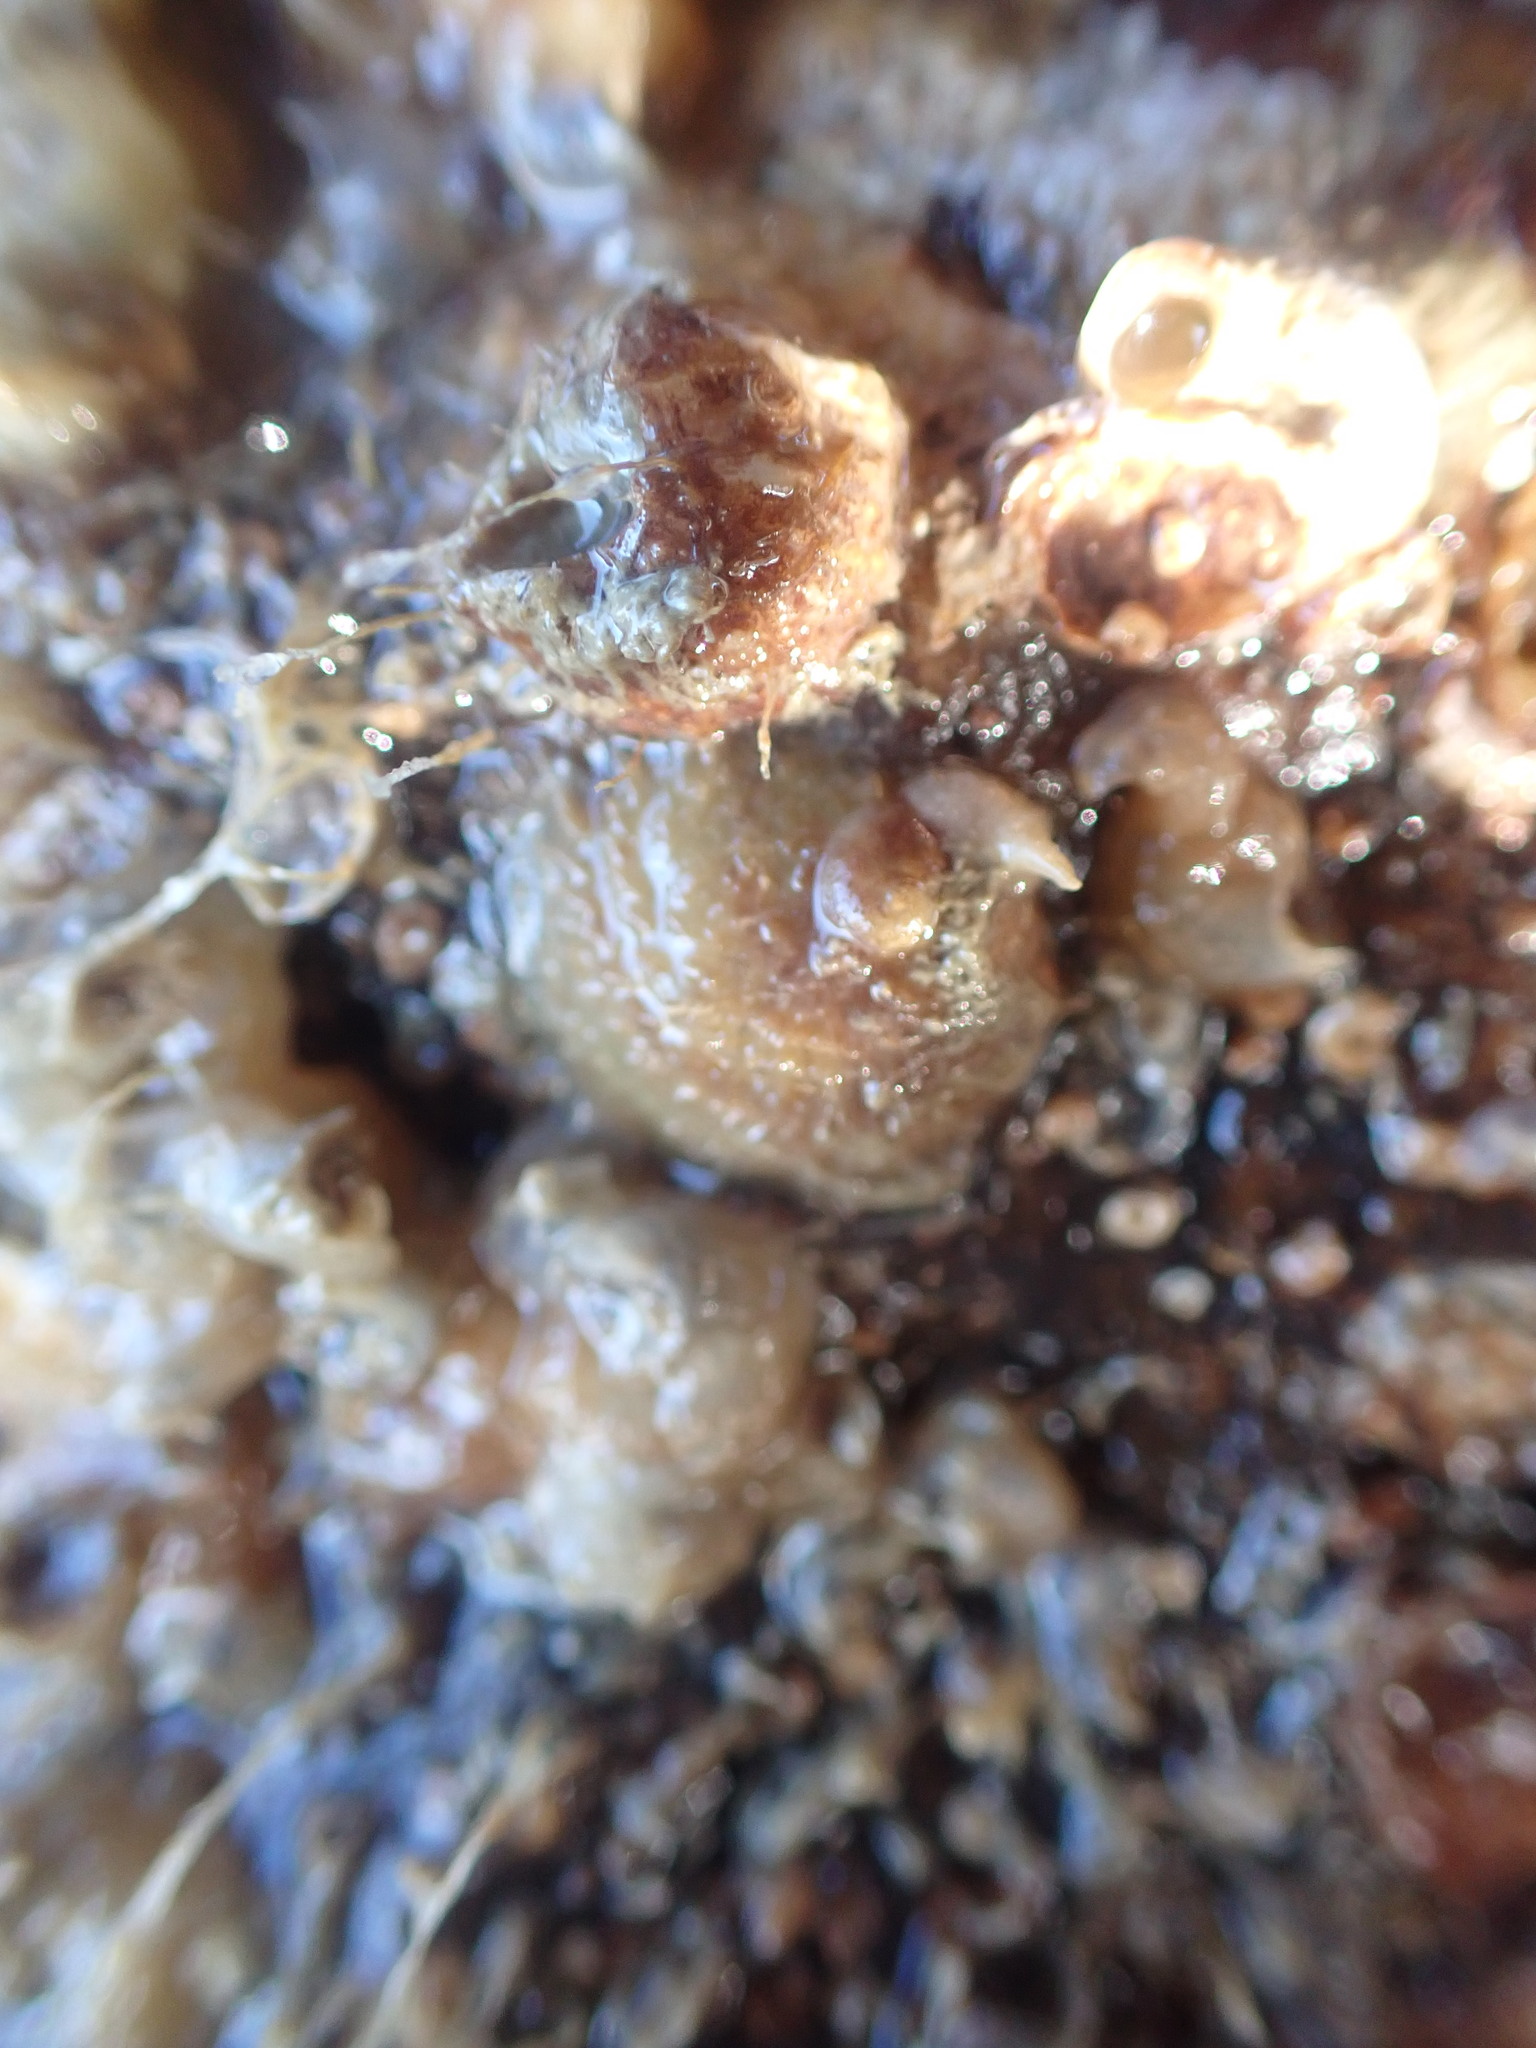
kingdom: Animalia
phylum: Mollusca
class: Gastropoda
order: Littorinimorpha
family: Calyptraeidae
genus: Sigapatella
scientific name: Sigapatella novaezelandiae
